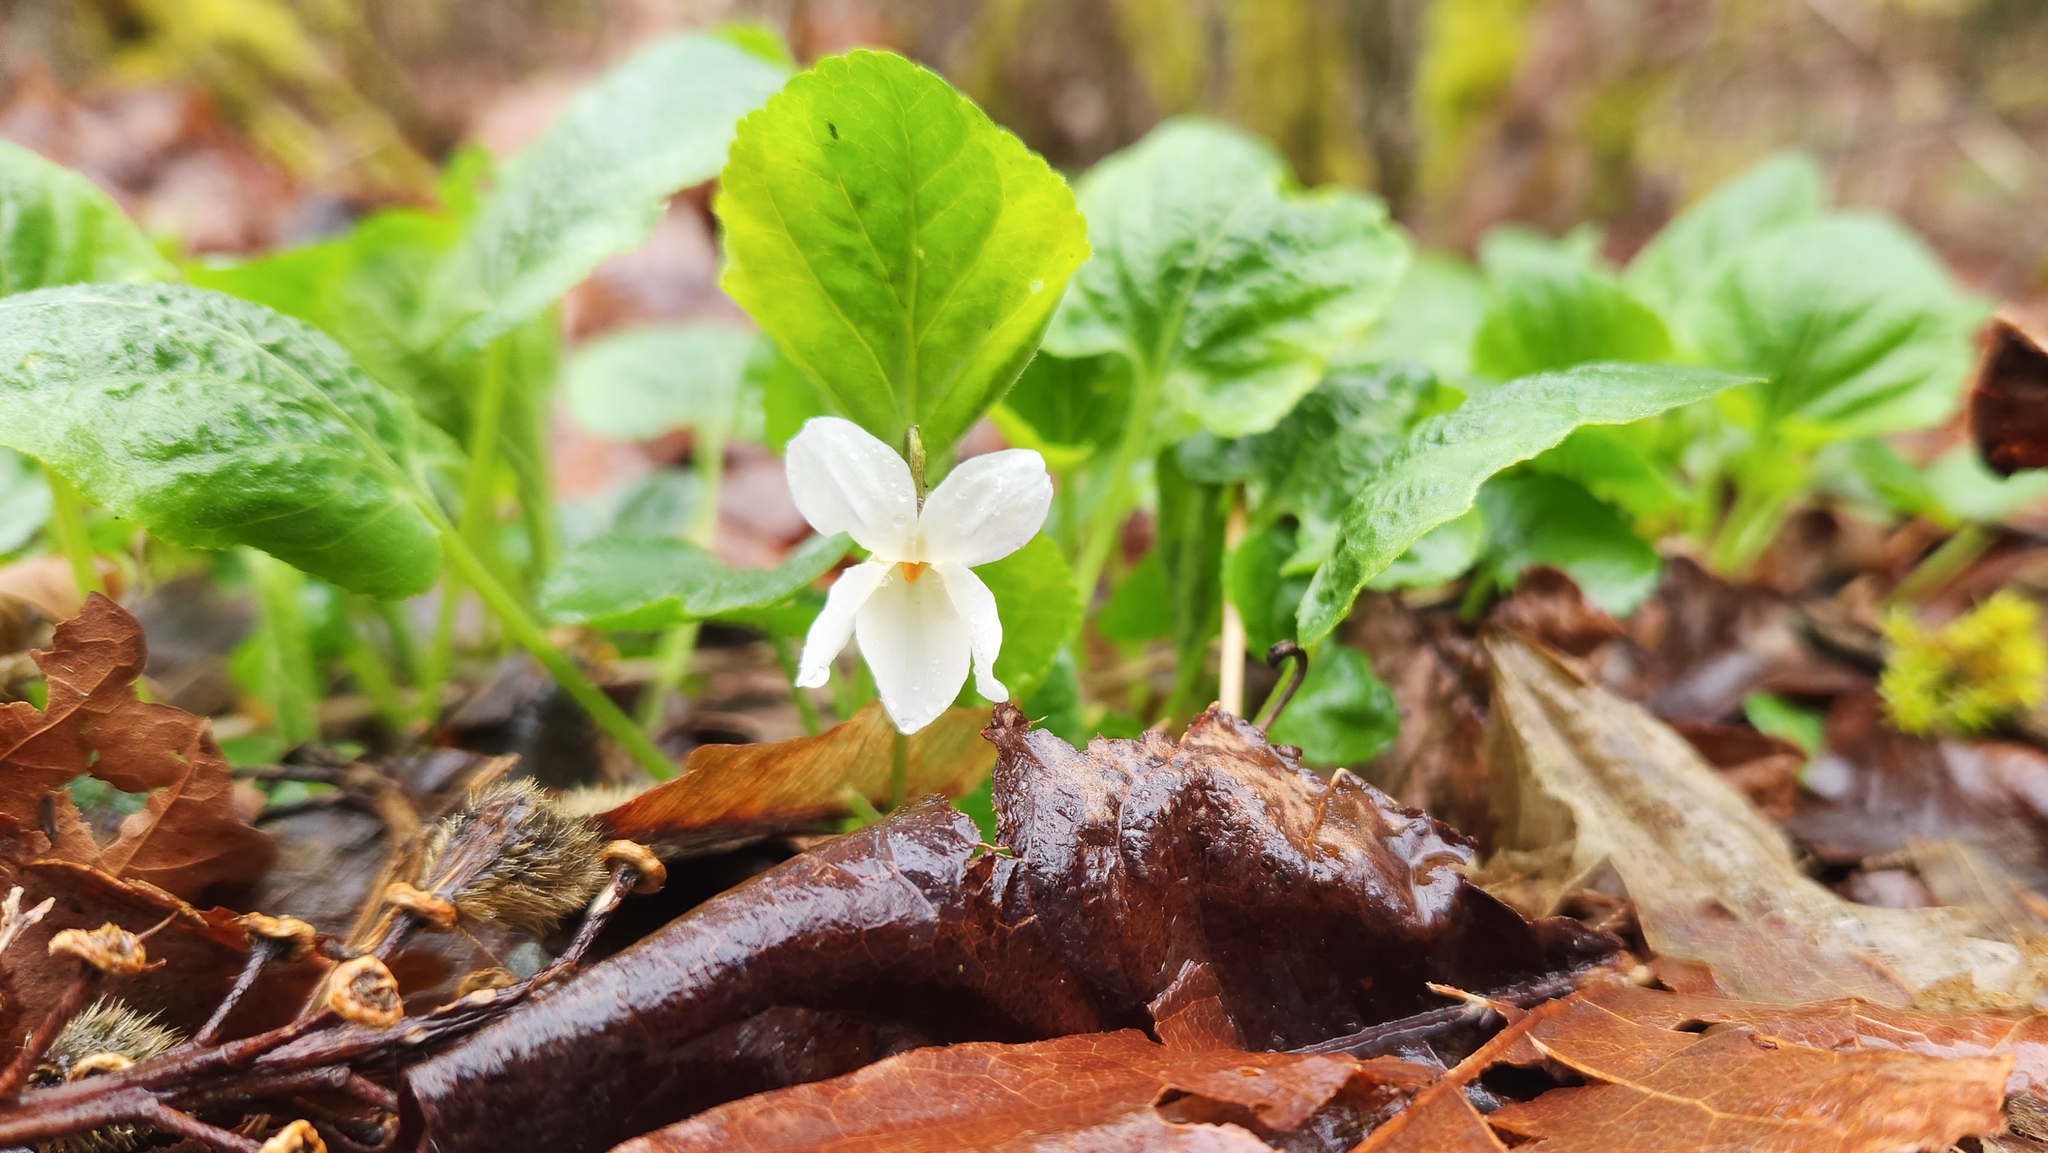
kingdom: Plantae
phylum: Tracheophyta
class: Magnoliopsida
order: Malpighiales
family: Violaceae
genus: Viola
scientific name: Viola odorata
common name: Sweet violet
